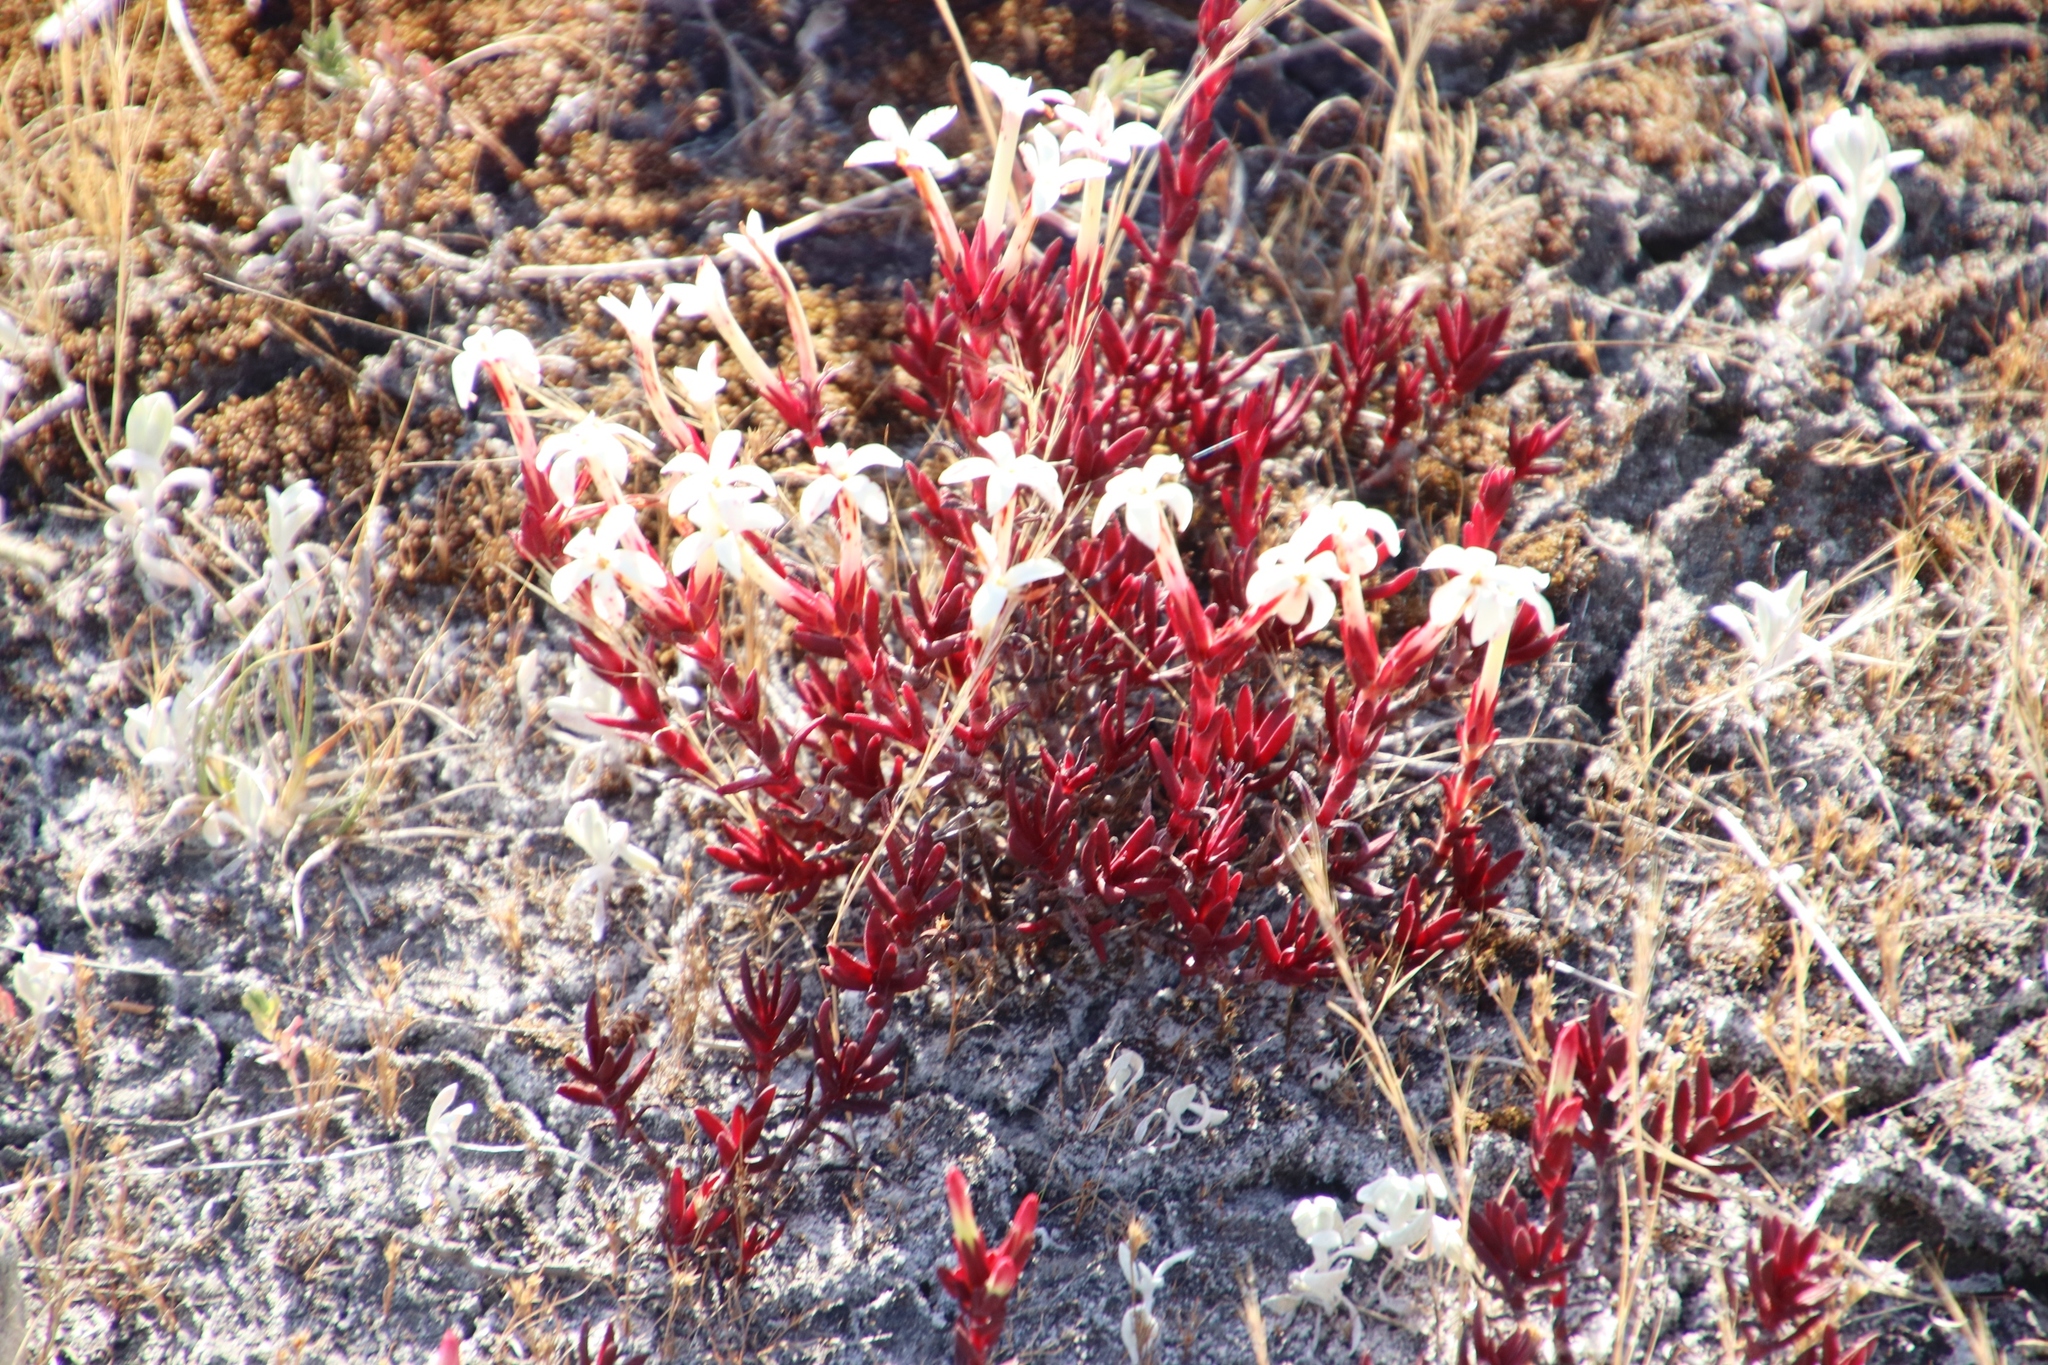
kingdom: Plantae
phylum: Tracheophyta
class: Magnoliopsida
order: Saxifragales
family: Crassulaceae
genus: Crassula
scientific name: Crassula obtusa
